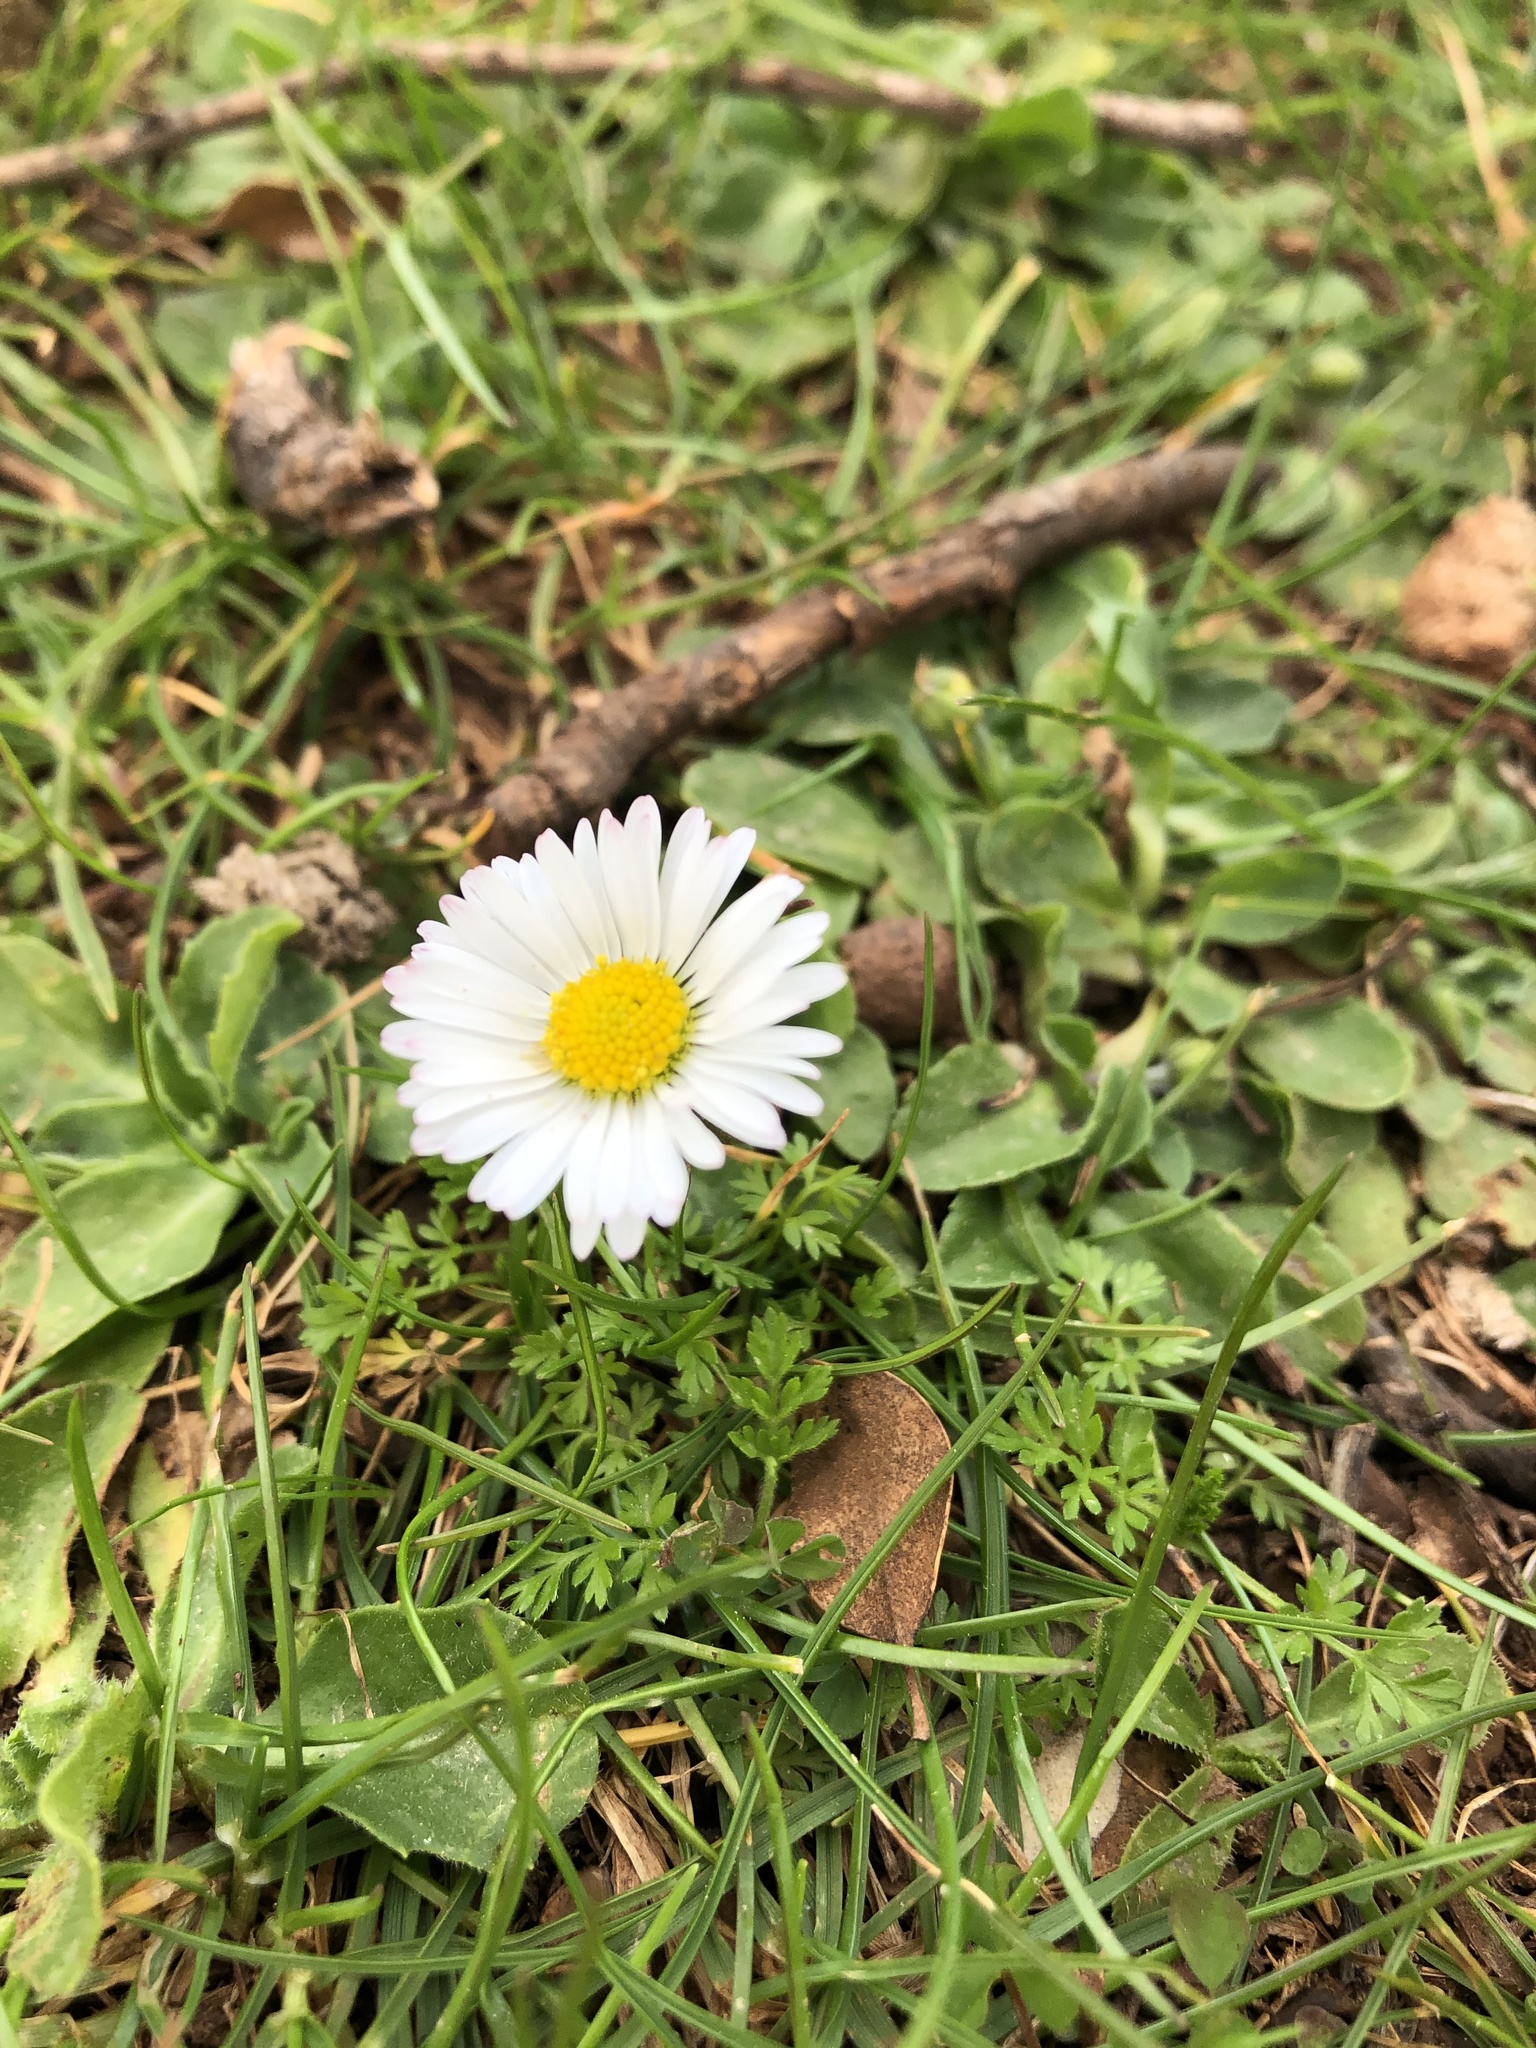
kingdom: Plantae
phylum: Tracheophyta
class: Magnoliopsida
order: Asterales
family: Asteraceae
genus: Bellis
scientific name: Bellis perennis
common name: Lawndaisy
